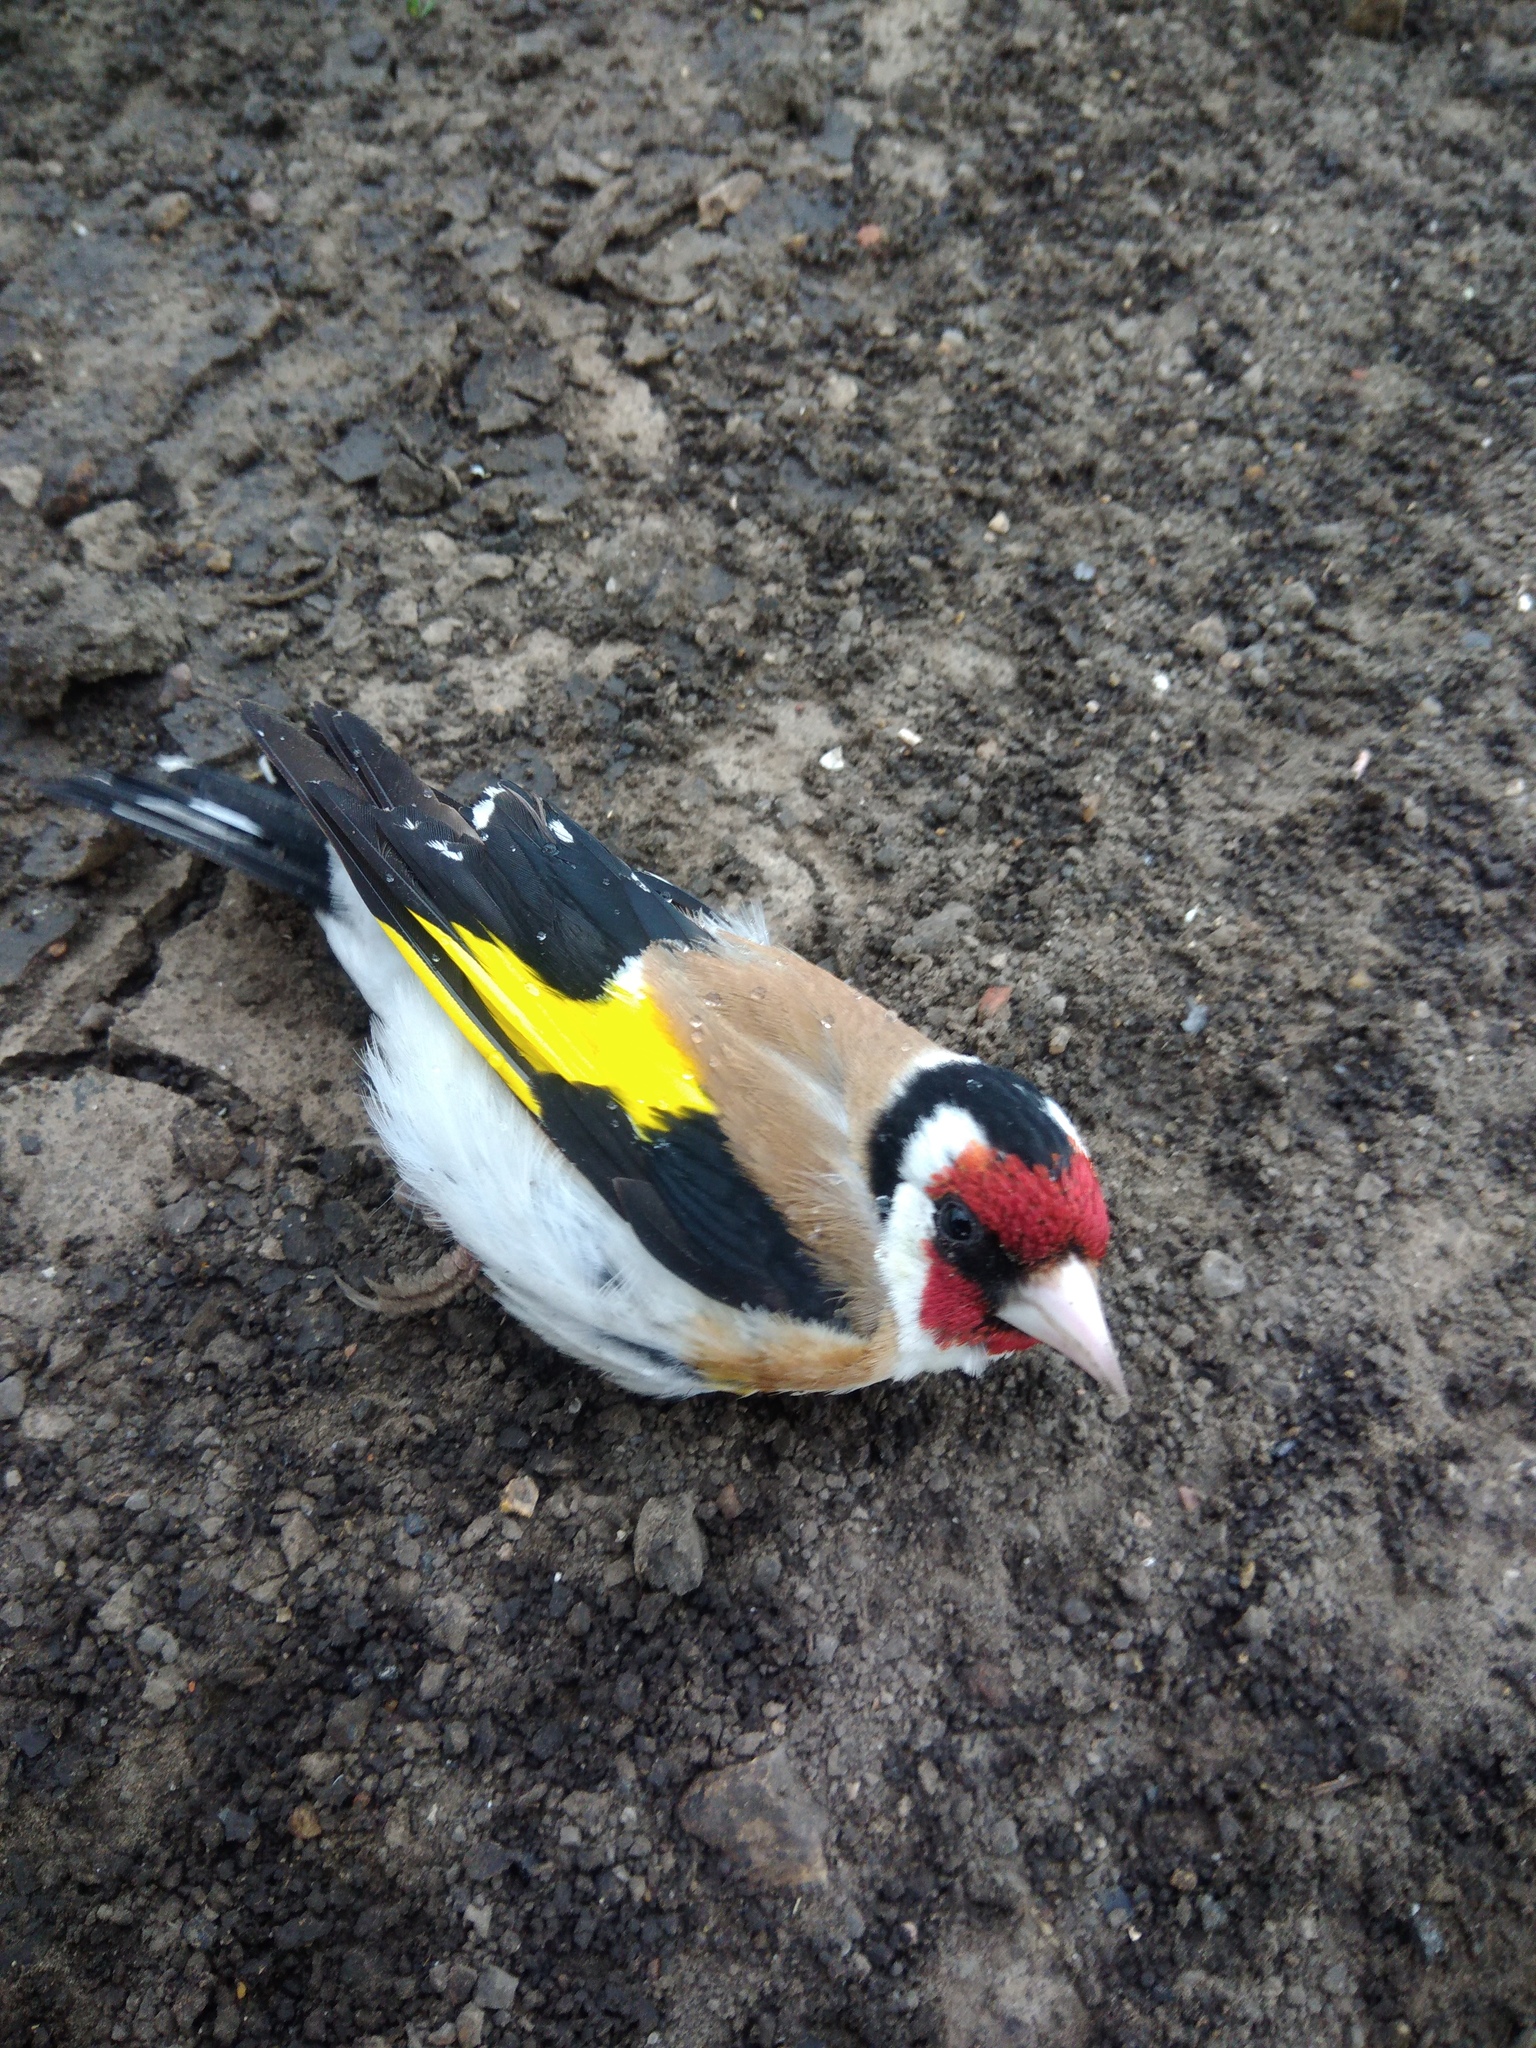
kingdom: Animalia
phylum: Chordata
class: Aves
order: Passeriformes
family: Fringillidae
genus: Carduelis
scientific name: Carduelis carduelis
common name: European goldfinch
